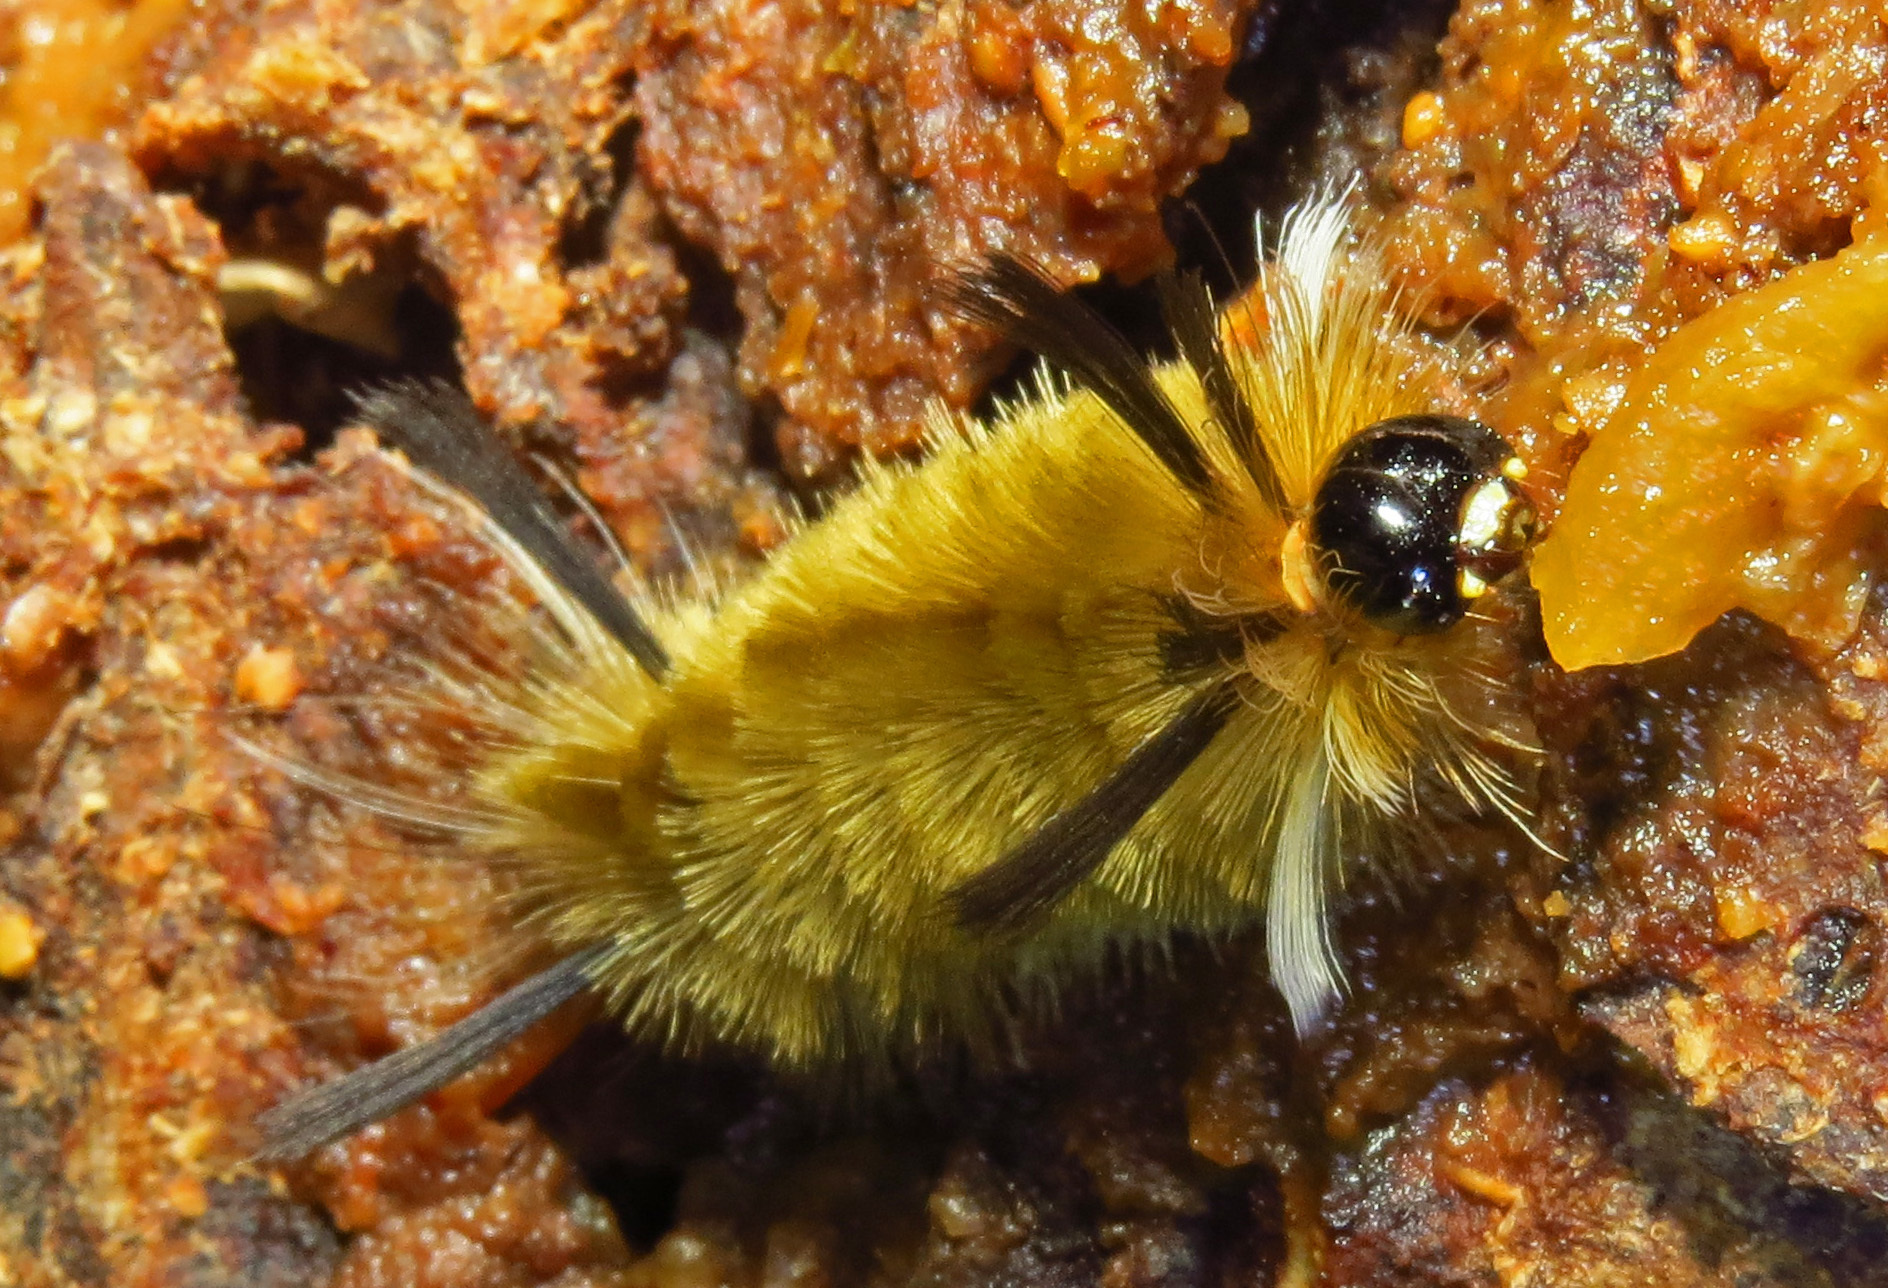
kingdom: Animalia
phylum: Arthropoda
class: Insecta
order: Lepidoptera
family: Erebidae
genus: Halysidota
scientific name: Halysidota tessellaris
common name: Banded tussock moth
